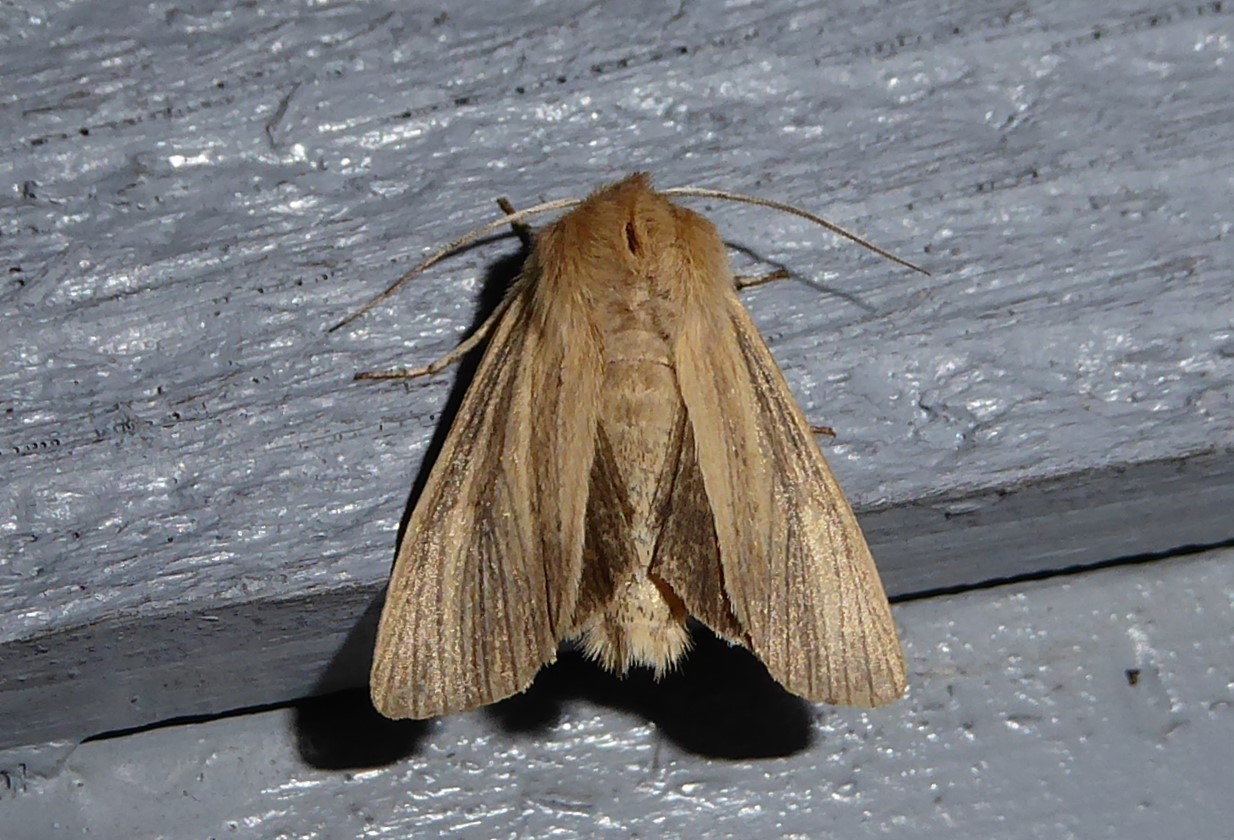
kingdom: Animalia
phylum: Arthropoda
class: Insecta
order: Lepidoptera
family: Noctuidae
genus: Ichneutica
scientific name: Ichneutica arotis
